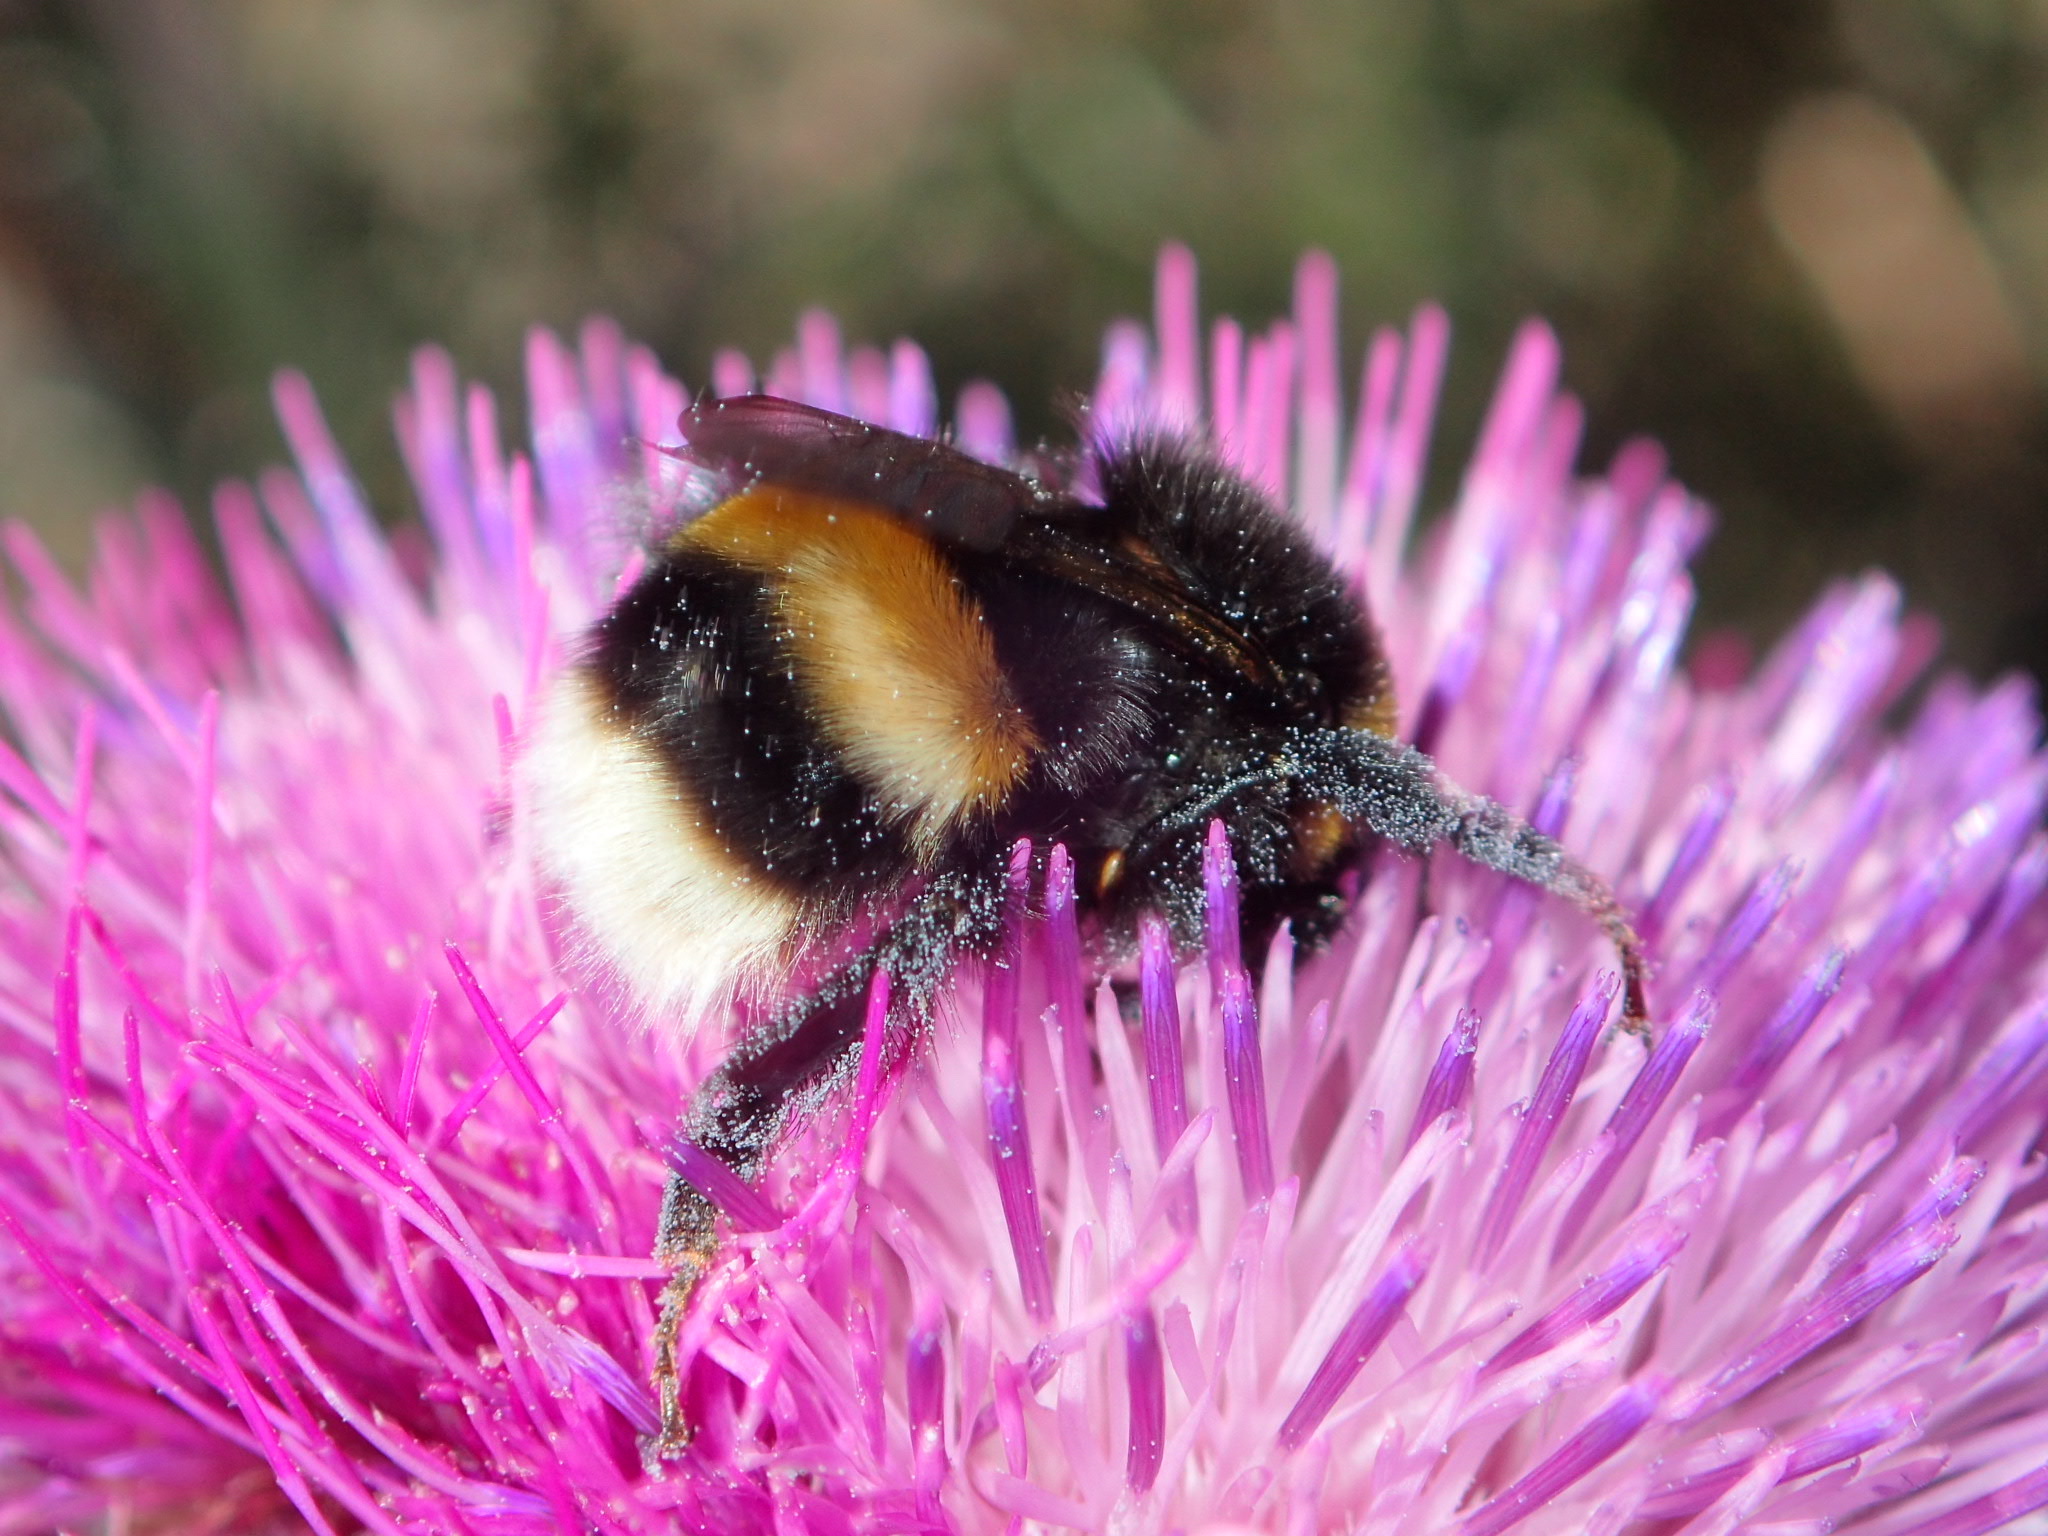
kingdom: Animalia
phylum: Arthropoda
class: Insecta
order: Hymenoptera
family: Apidae
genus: Bombus
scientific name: Bombus terrestris
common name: Buff-tailed bumblebee
